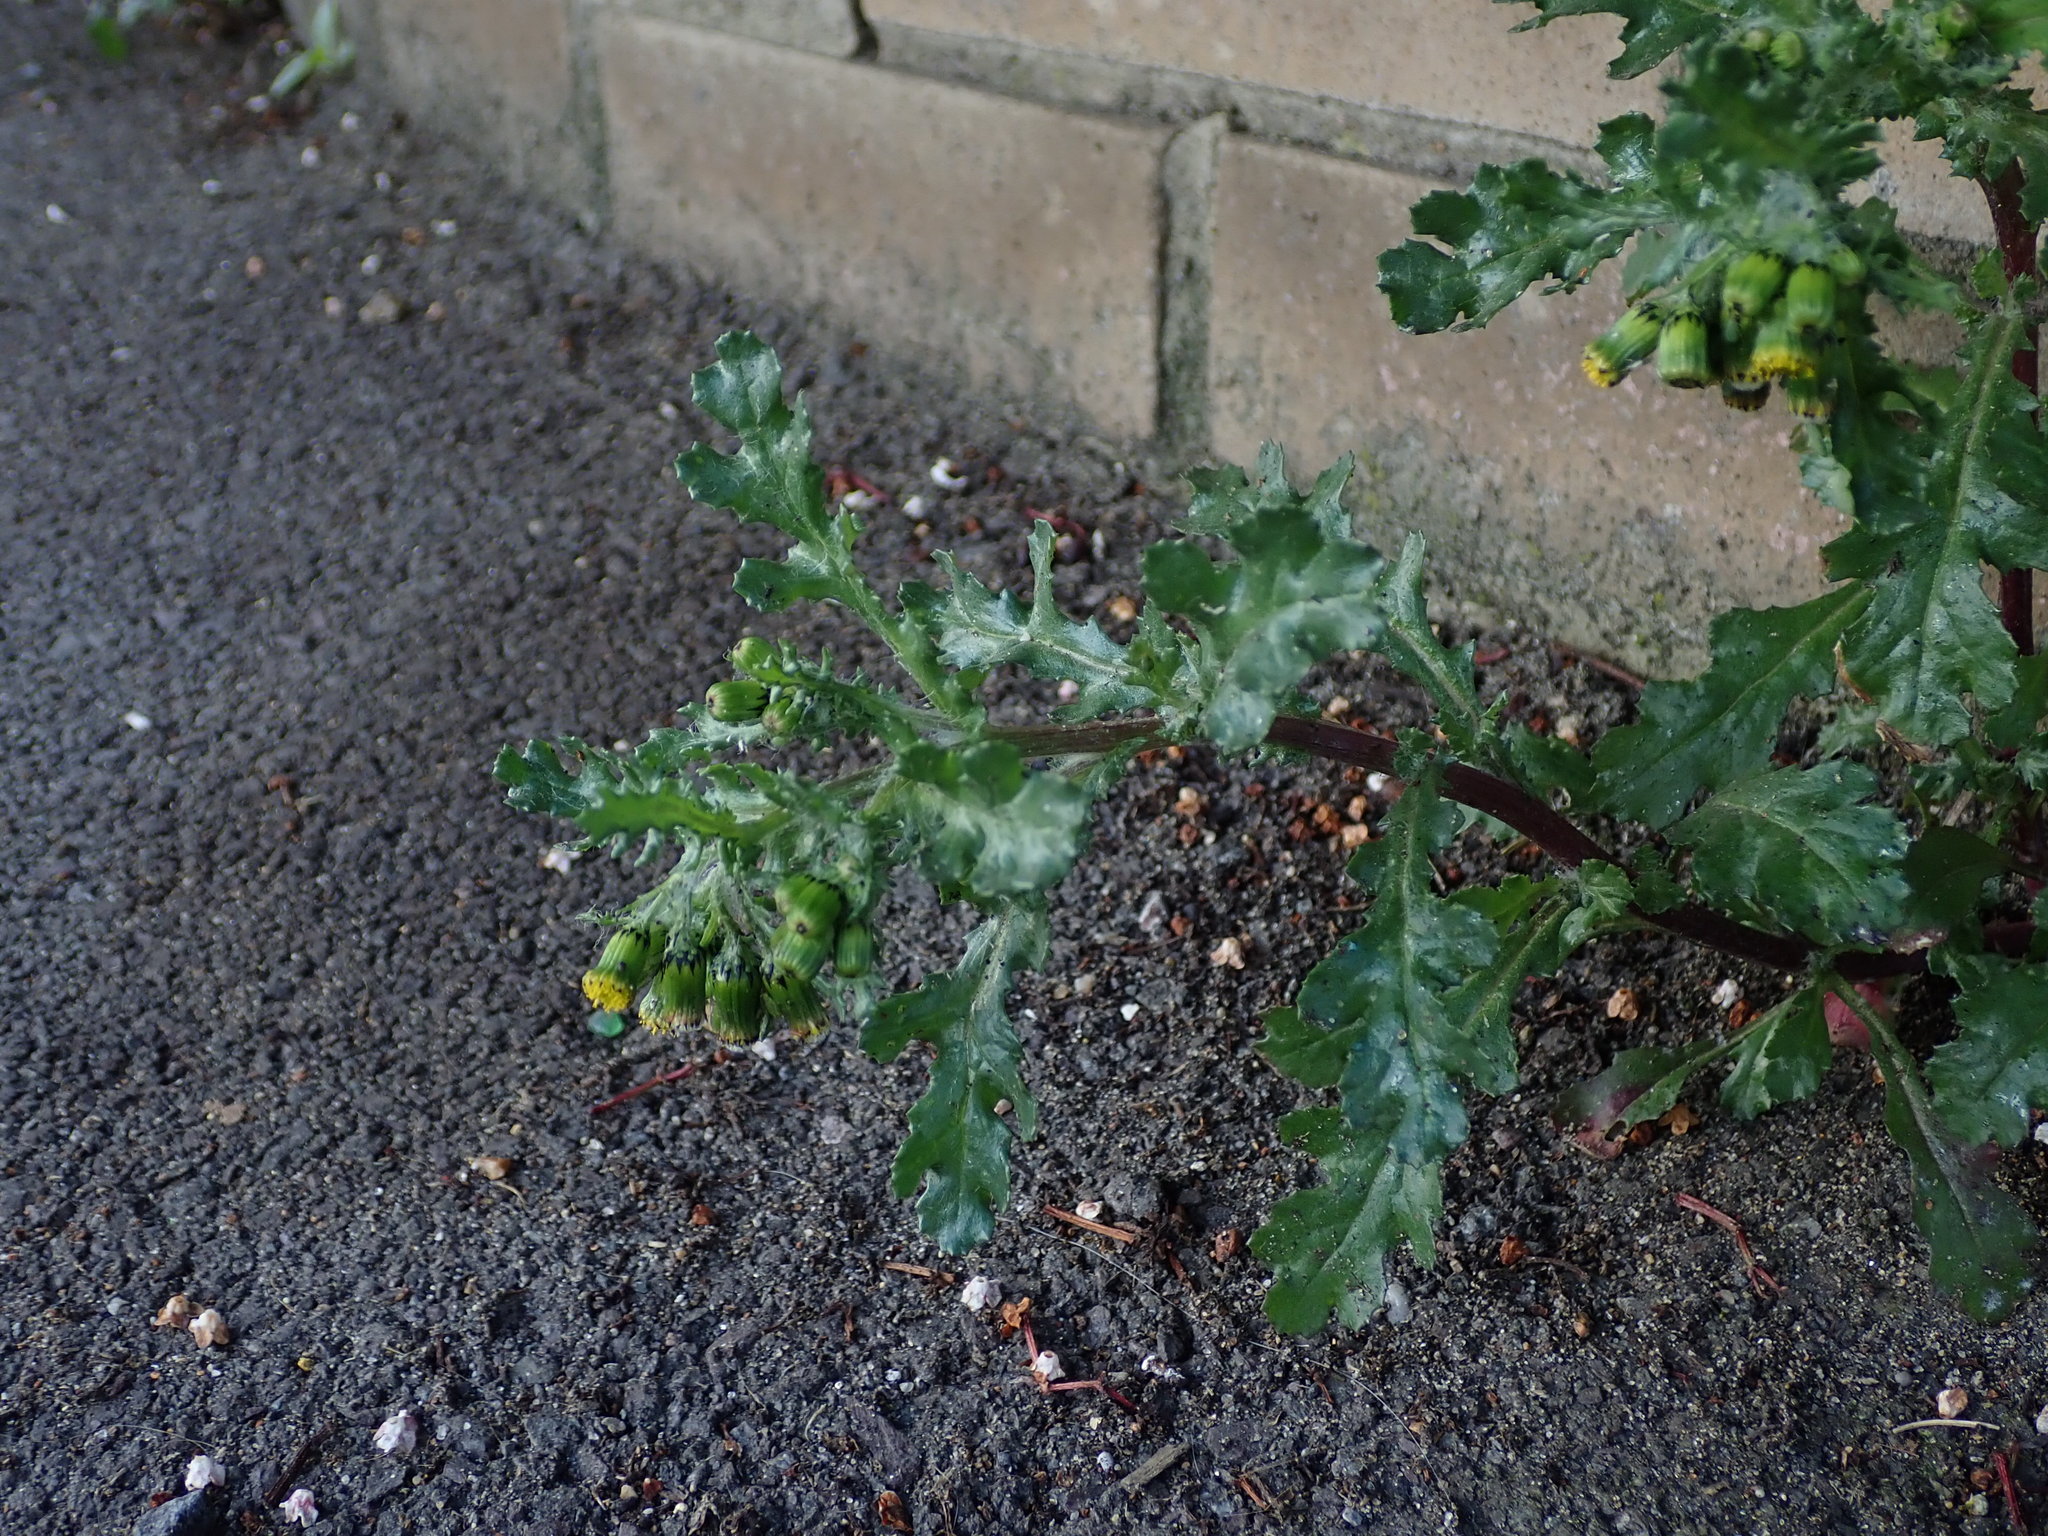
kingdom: Plantae
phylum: Tracheophyta
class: Magnoliopsida
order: Asterales
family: Asteraceae
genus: Senecio
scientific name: Senecio vulgaris
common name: Old-man-in-the-spring
